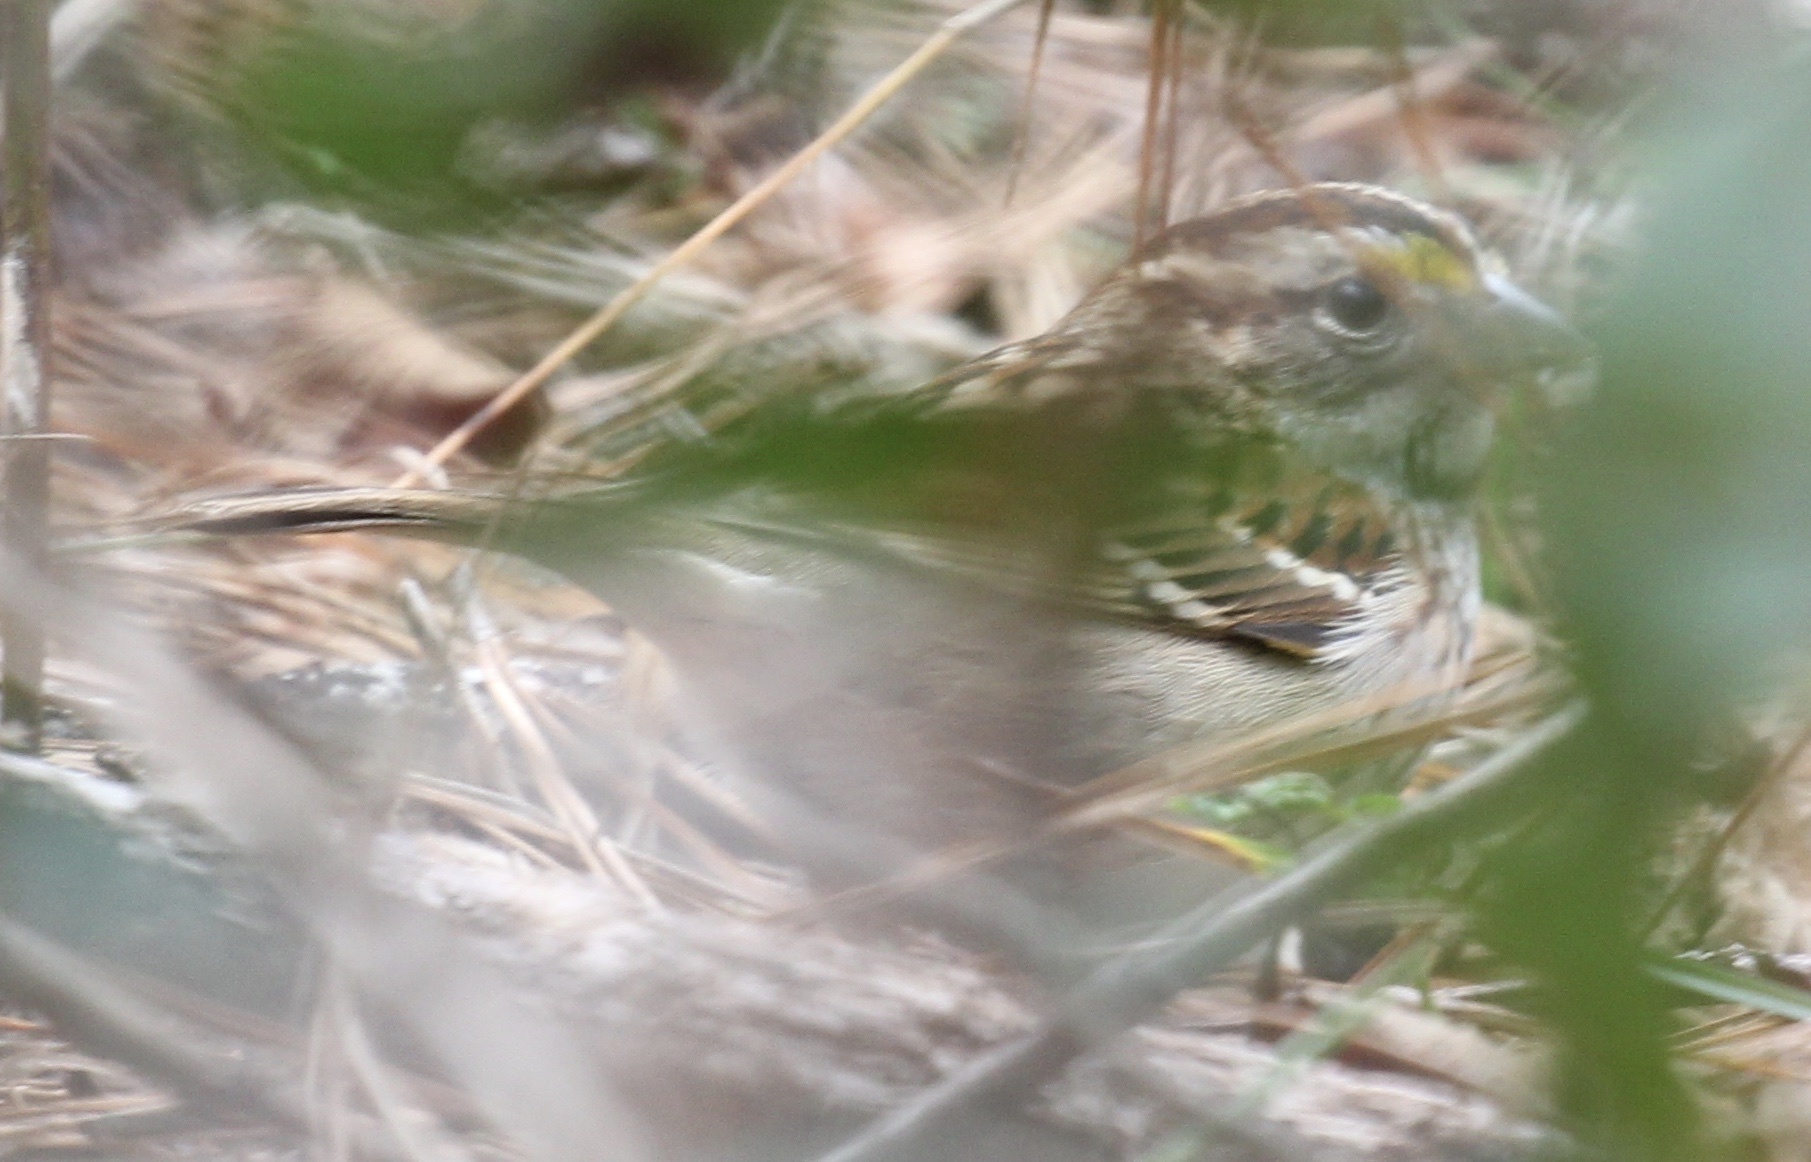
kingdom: Animalia
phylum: Chordata
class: Aves
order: Passeriformes
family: Passerellidae
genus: Zonotrichia
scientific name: Zonotrichia albicollis
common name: White-throated sparrow
